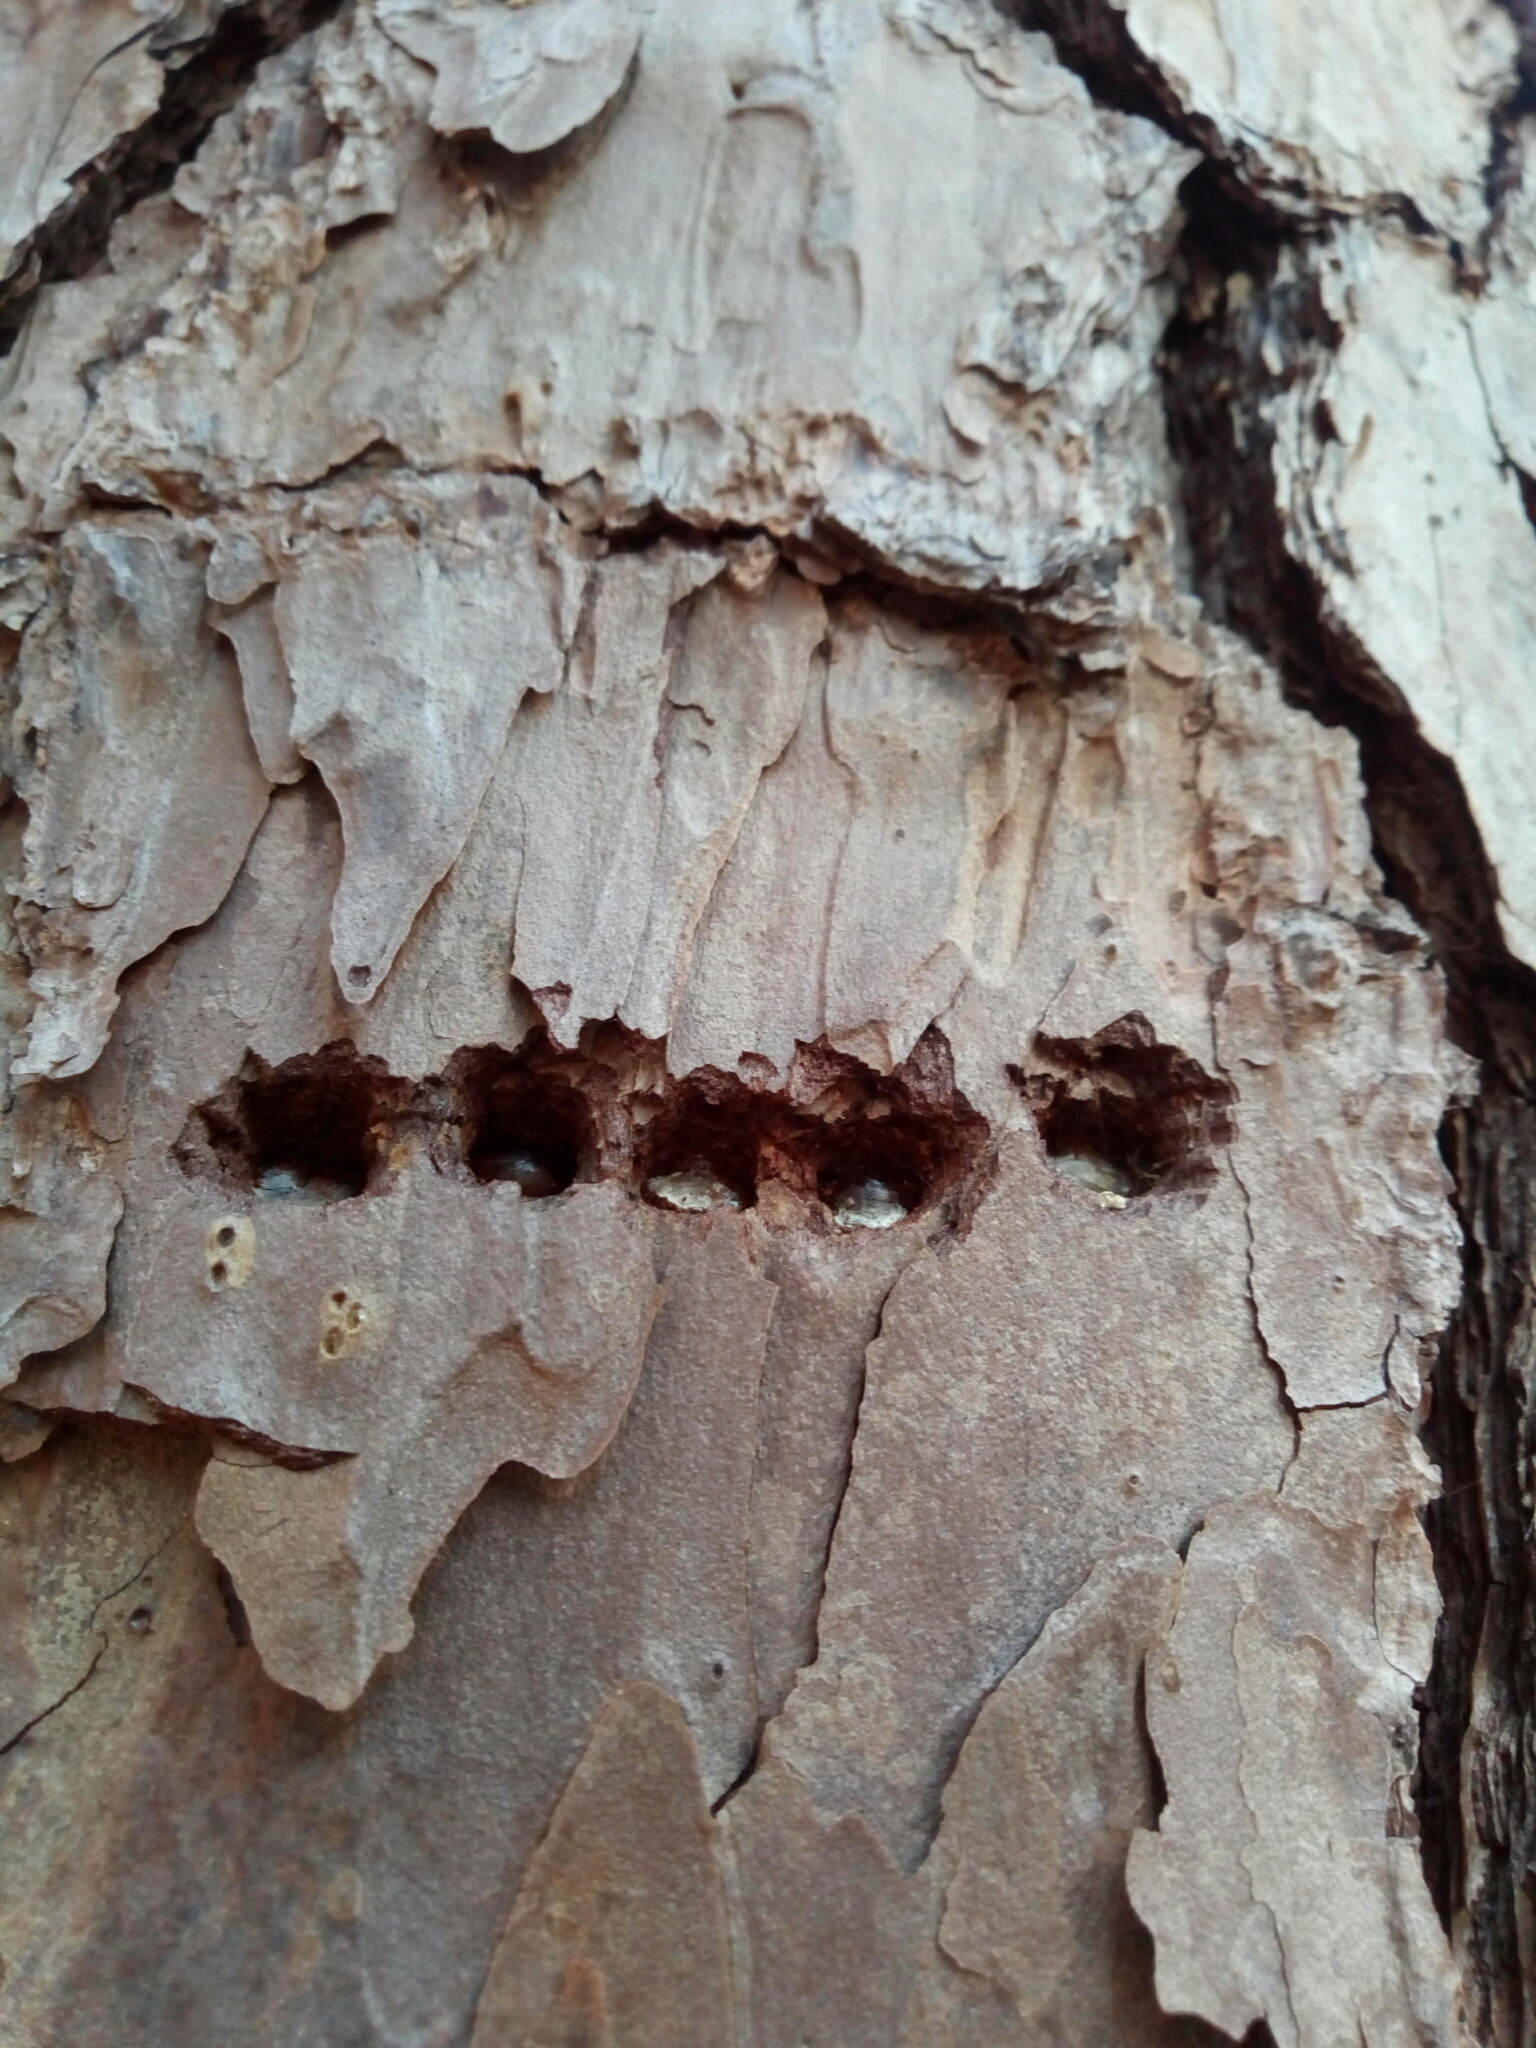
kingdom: Animalia
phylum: Chordata
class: Aves
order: Piciformes
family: Picidae
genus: Sphyrapicus
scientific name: Sphyrapicus varius
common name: Yellow-bellied sapsucker
